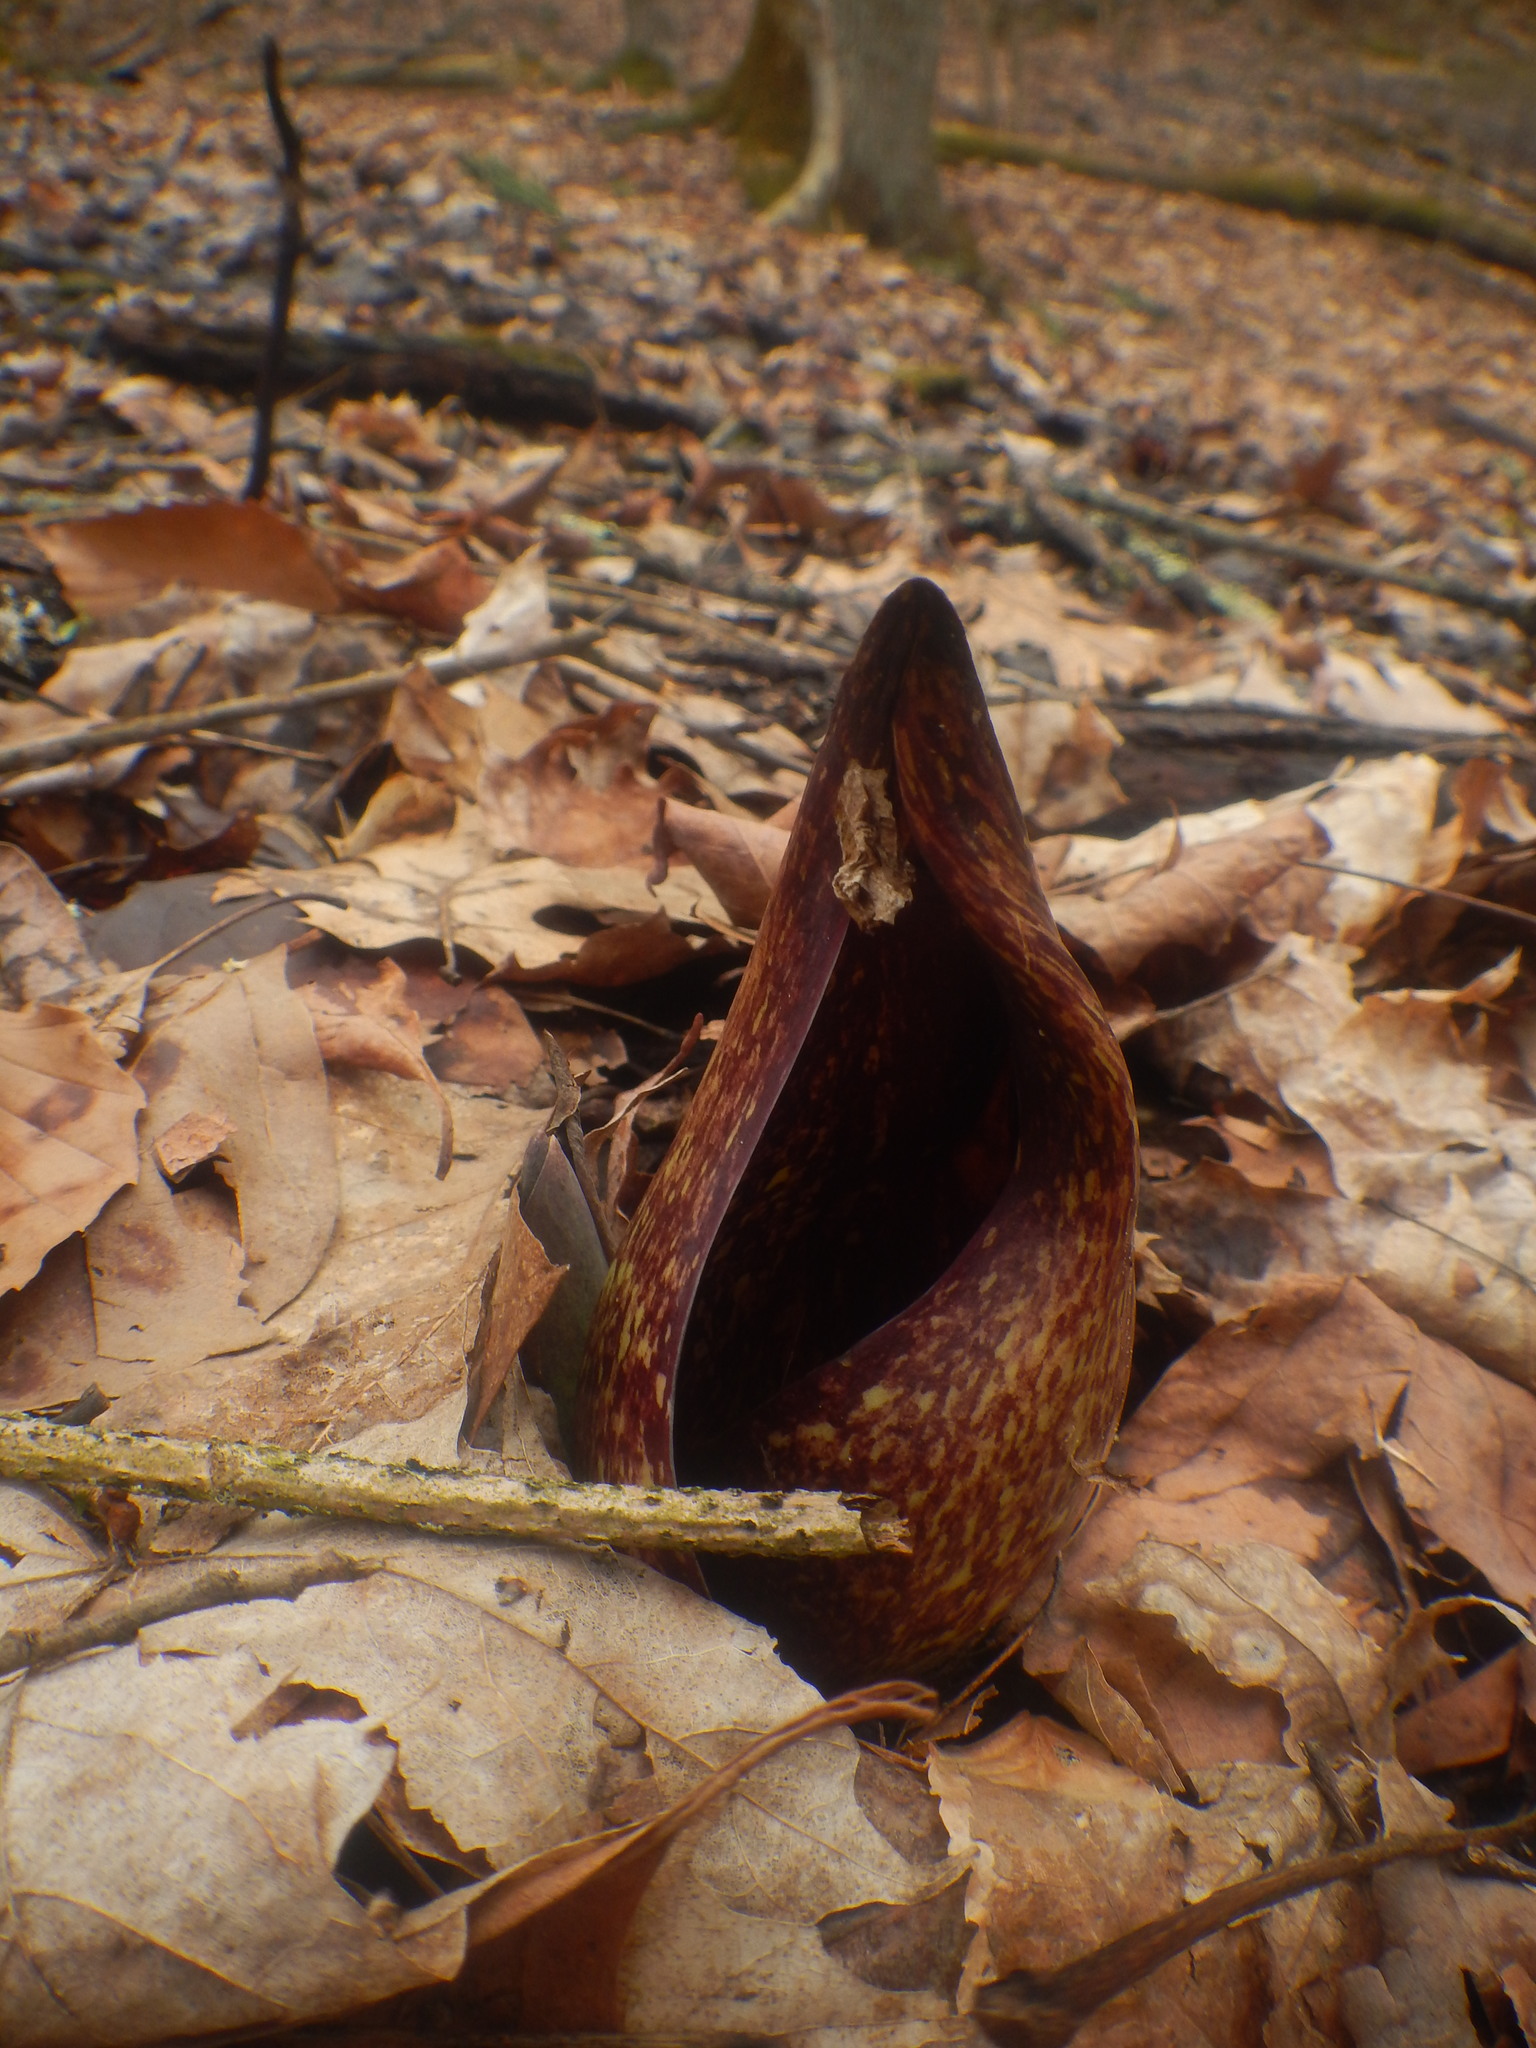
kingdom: Plantae
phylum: Tracheophyta
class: Liliopsida
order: Alismatales
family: Araceae
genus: Symplocarpus
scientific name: Symplocarpus foetidus
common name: Eastern skunk cabbage
